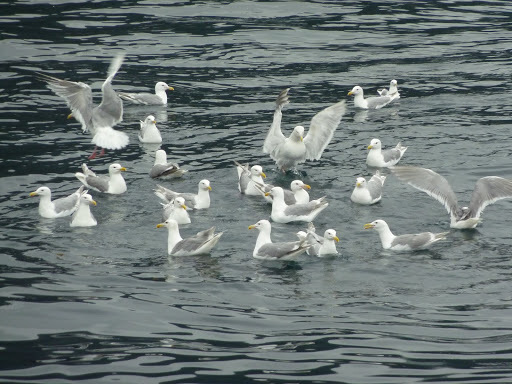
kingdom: Animalia
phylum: Chordata
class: Aves
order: Charadriiformes
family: Laridae
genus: Larus
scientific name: Larus glaucescens
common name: Glaucous-winged gull
